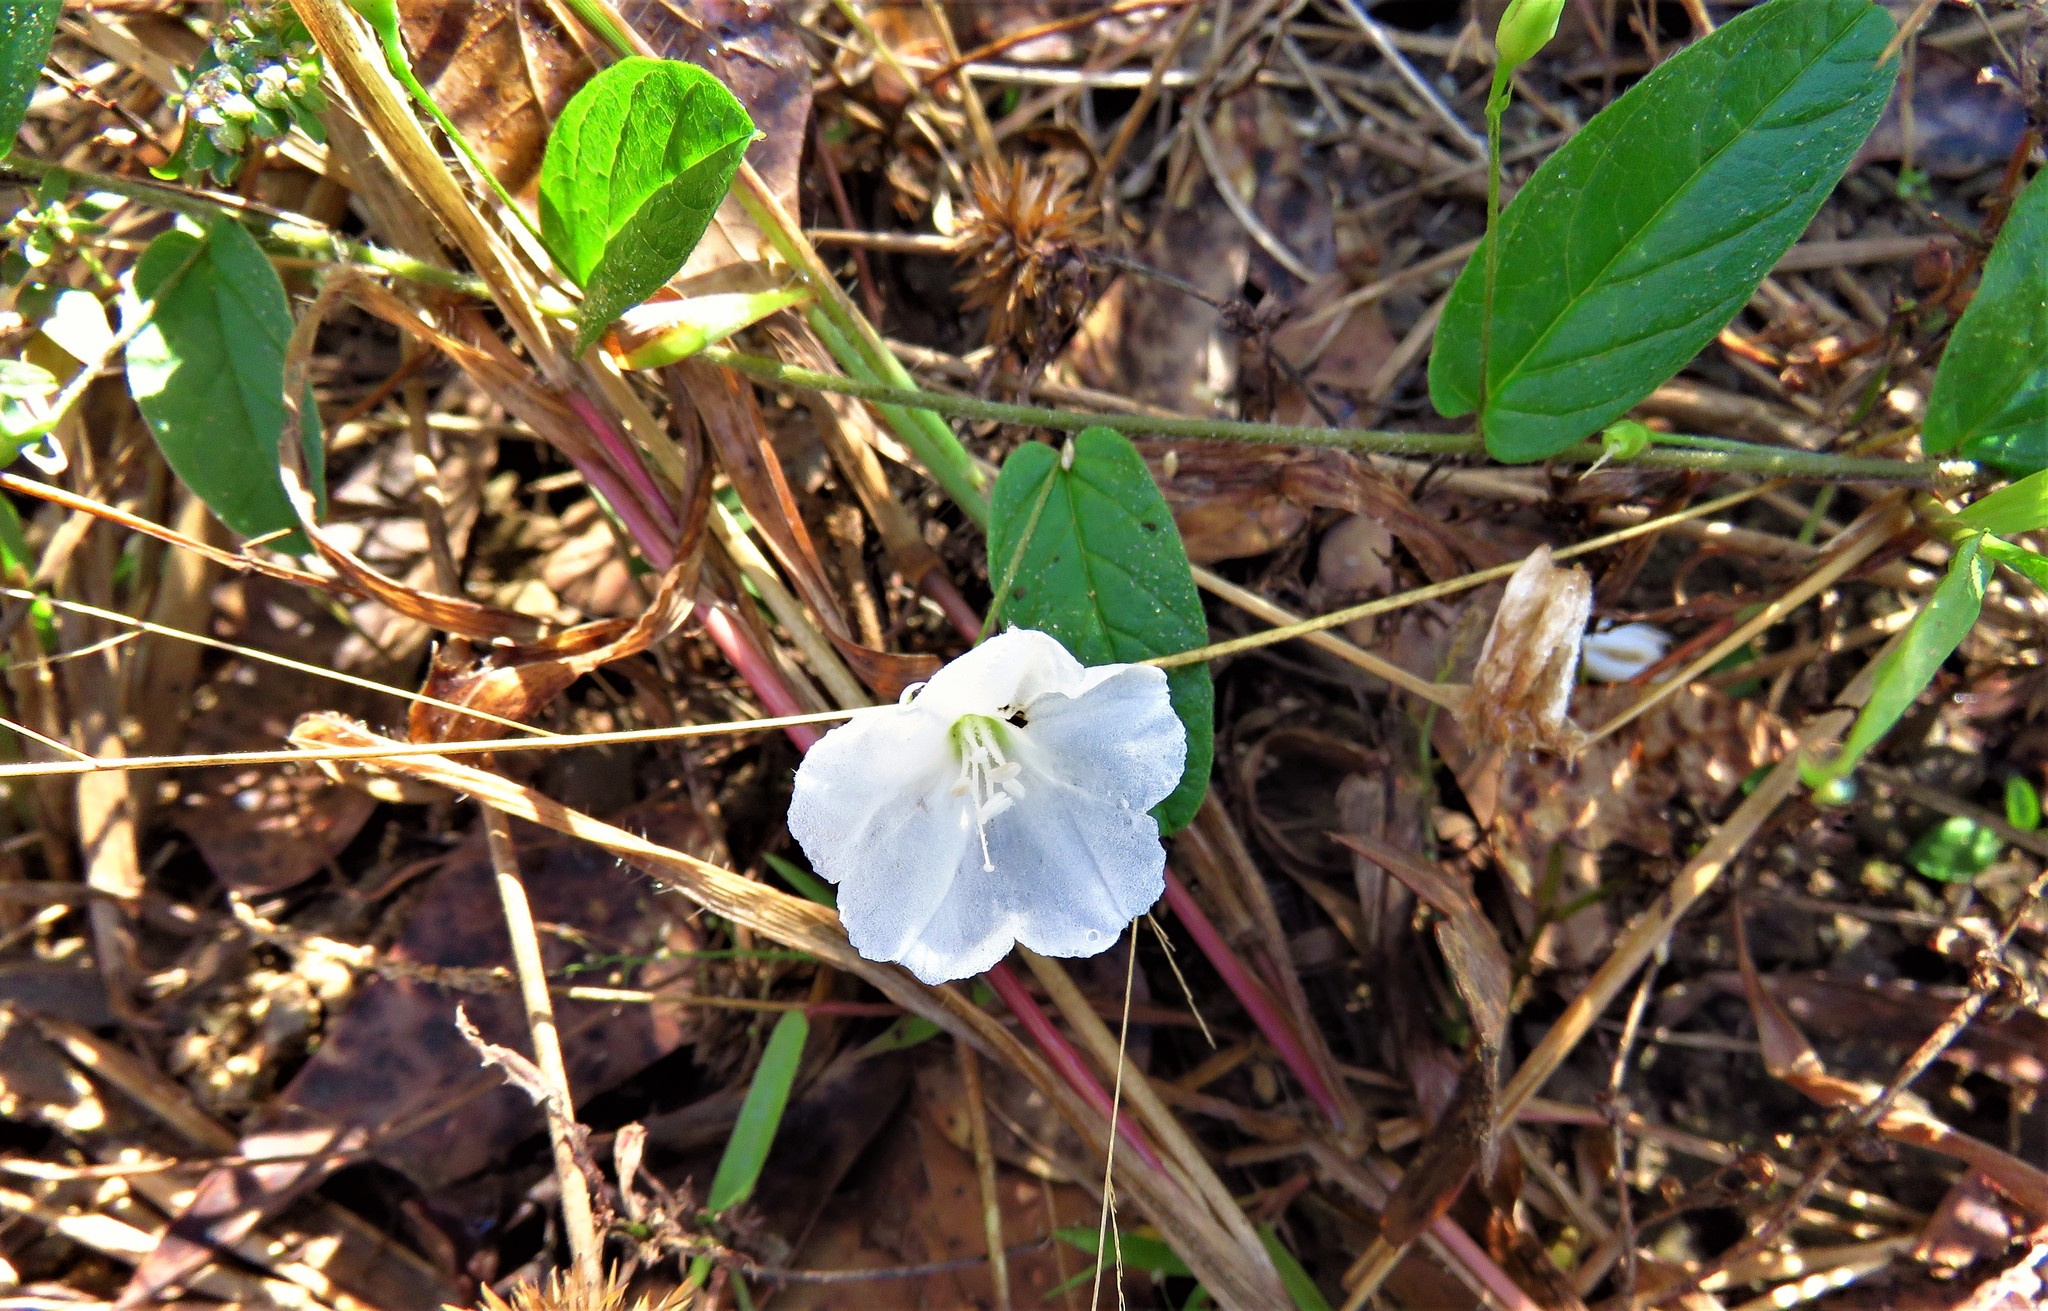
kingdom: Plantae
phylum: Tracheophyta
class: Magnoliopsida
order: Solanales
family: Convolvulaceae
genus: Stylisma
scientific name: Stylisma humistrata
